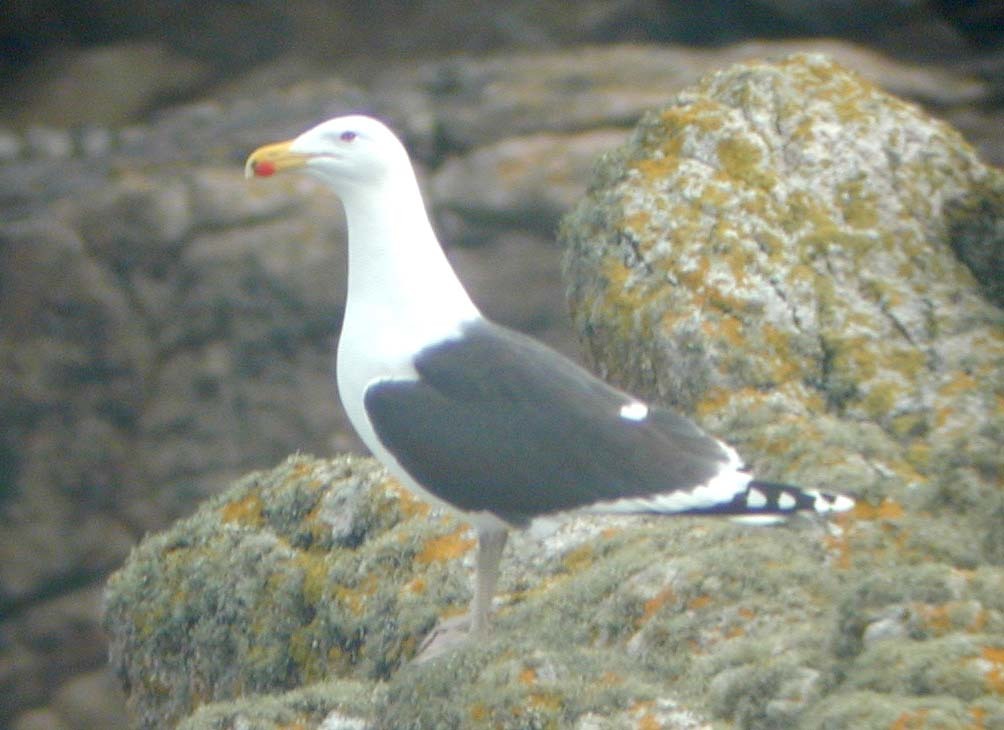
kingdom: Animalia
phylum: Chordata
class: Aves
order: Charadriiformes
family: Laridae
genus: Larus
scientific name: Larus marinus
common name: Great black-backed gull
